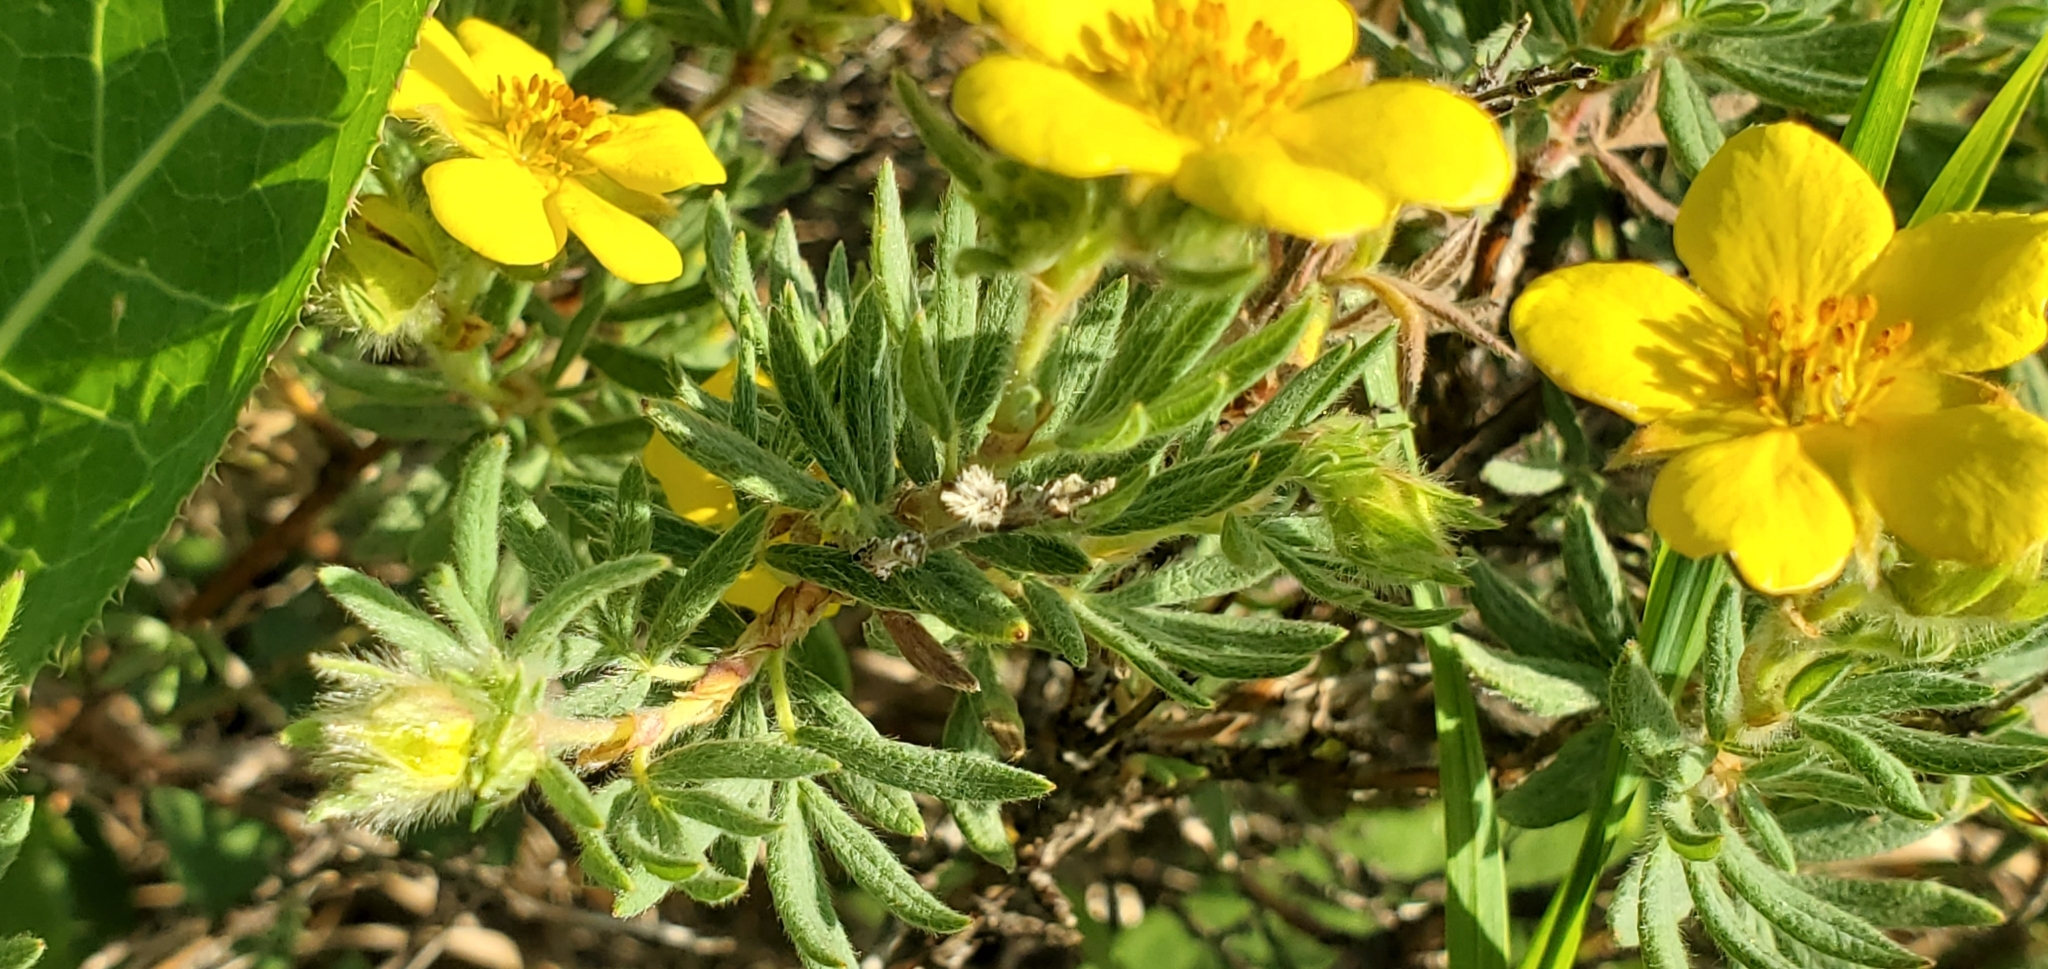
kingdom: Plantae
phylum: Tracheophyta
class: Magnoliopsida
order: Rosales
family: Rosaceae
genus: Dasiphora
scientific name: Dasiphora fruticosa
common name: Shrubby cinquefoil
